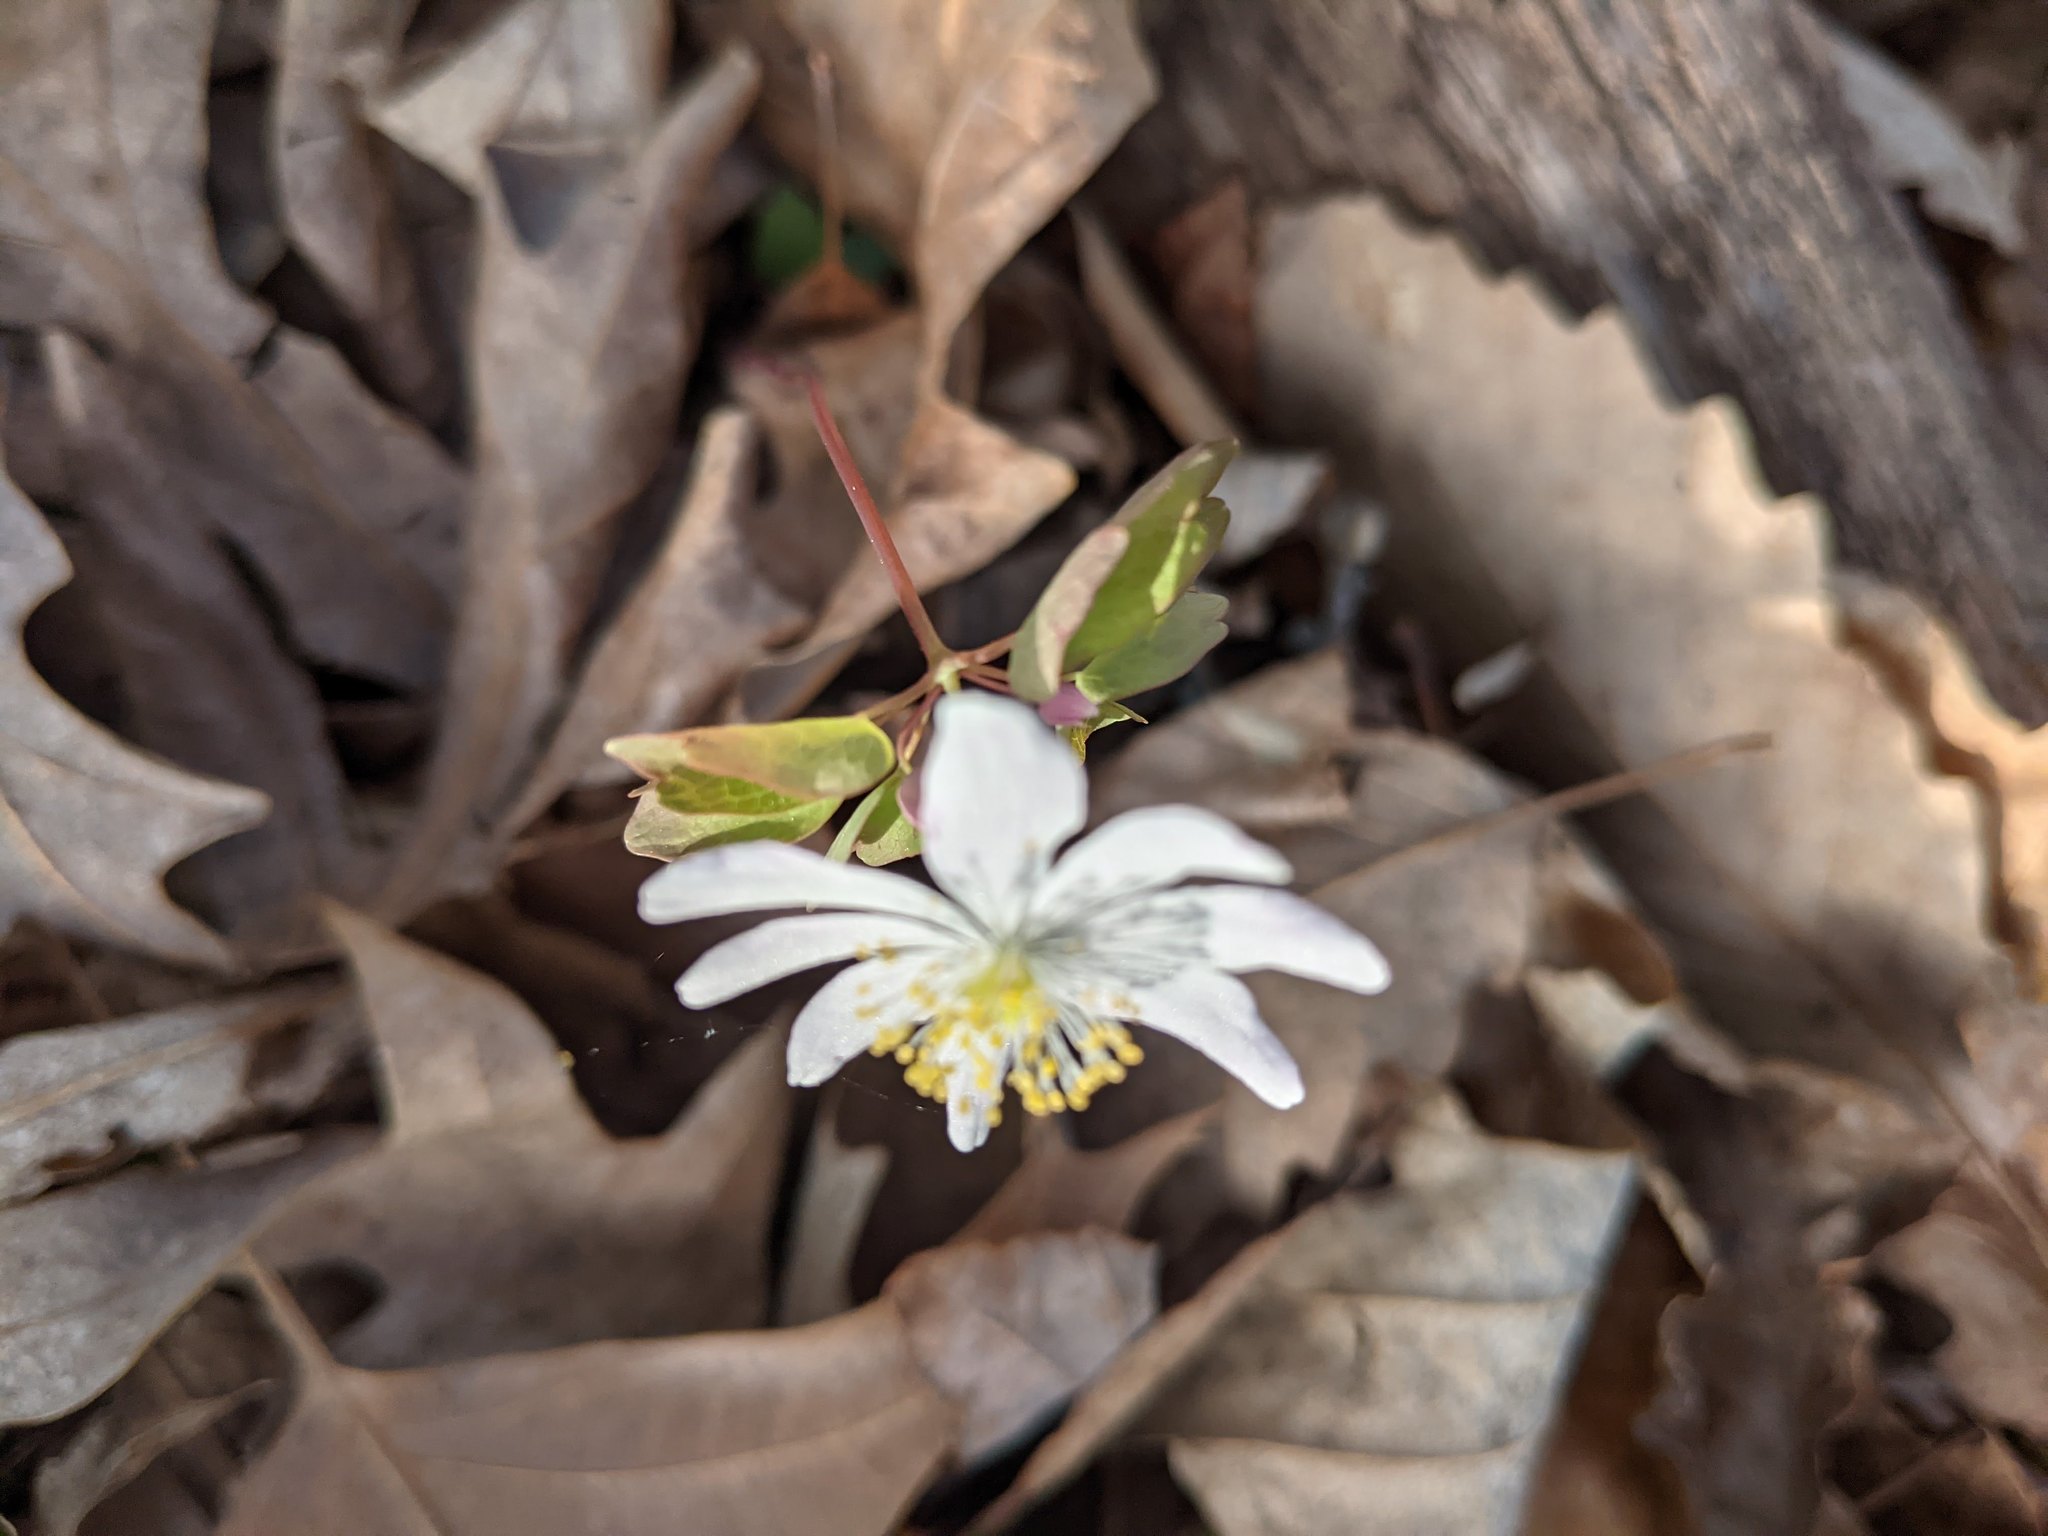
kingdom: Plantae
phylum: Tracheophyta
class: Magnoliopsida
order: Ranunculales
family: Ranunculaceae
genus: Thalictrum
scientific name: Thalictrum thalictroides
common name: Rue-anemone
